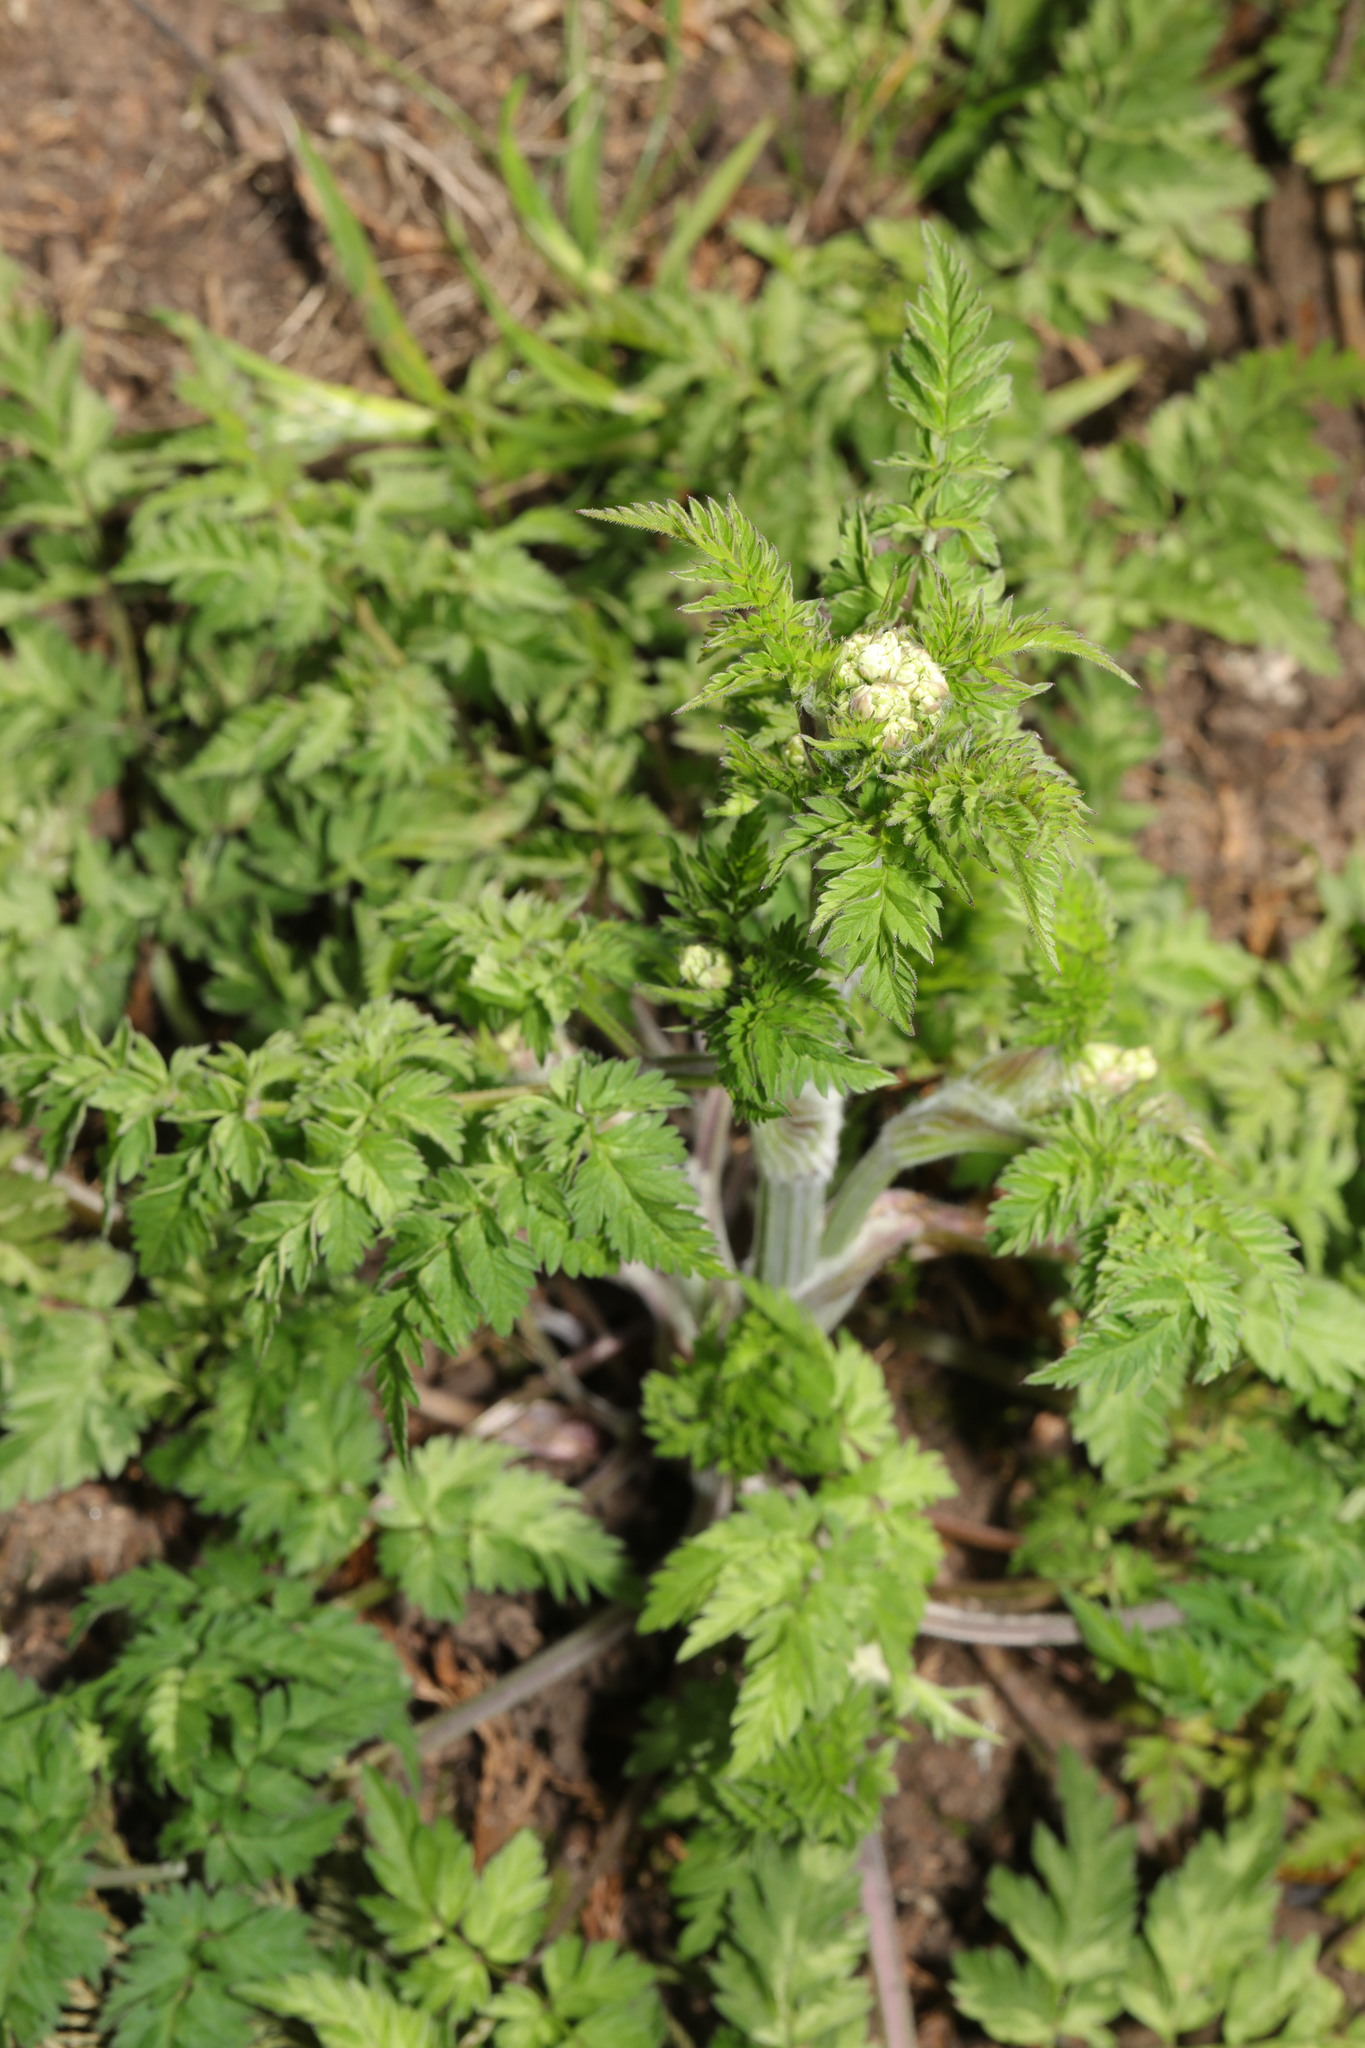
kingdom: Plantae
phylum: Tracheophyta
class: Magnoliopsida
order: Apiales
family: Apiaceae
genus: Anthriscus
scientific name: Anthriscus sylvestris
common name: Cow parsley
